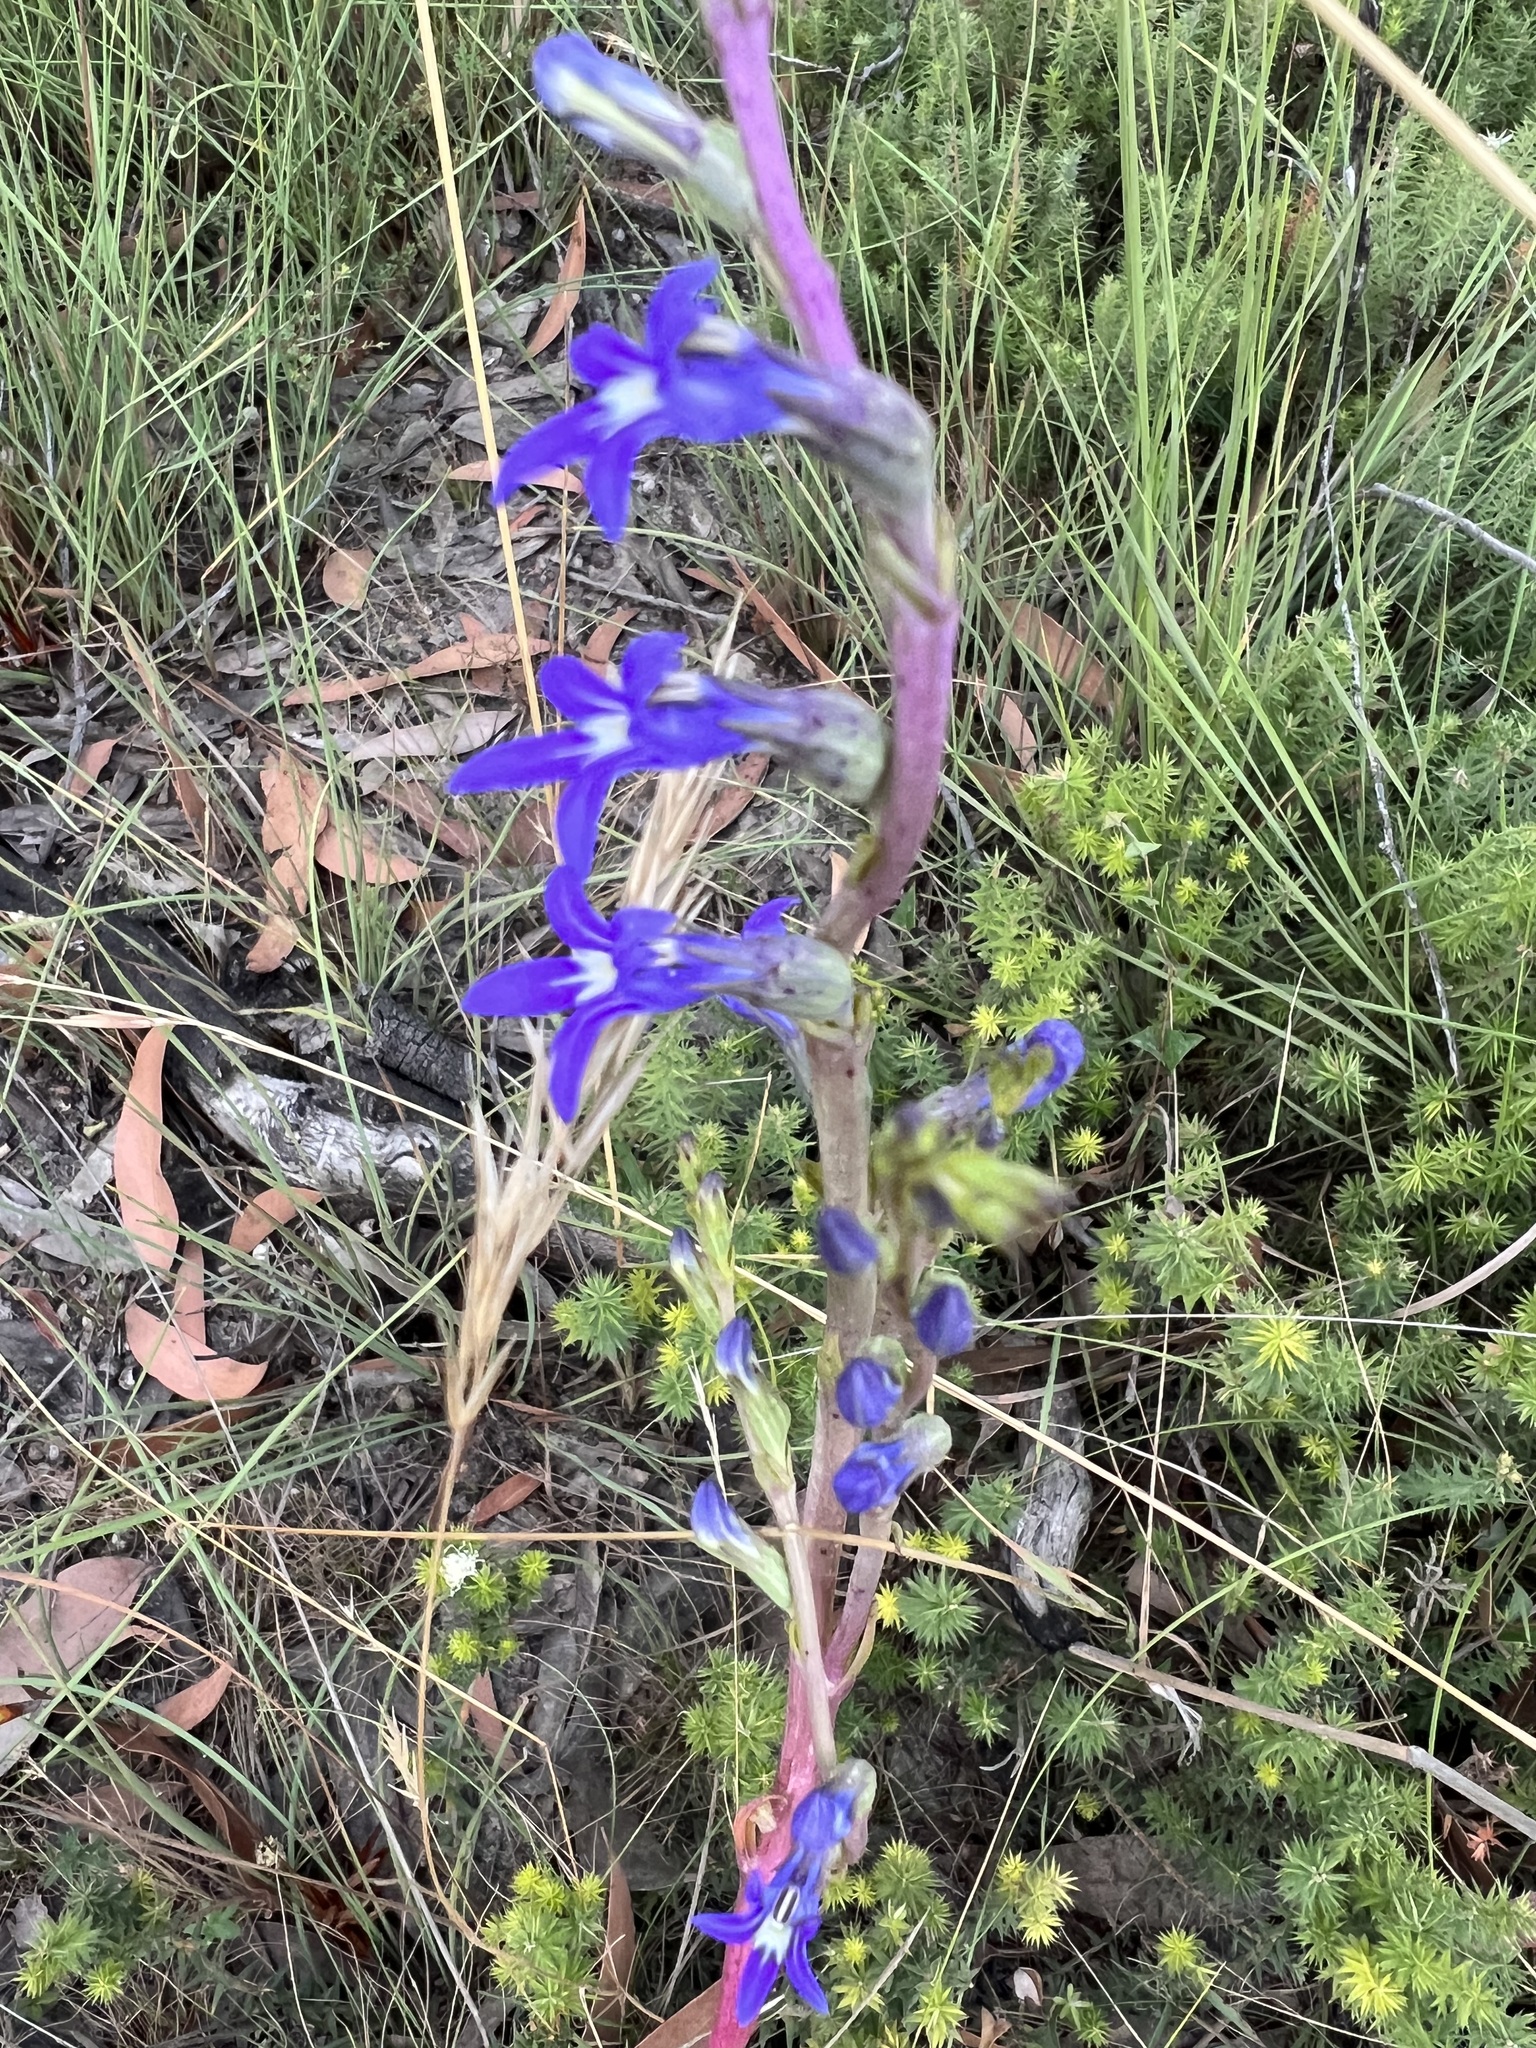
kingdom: Plantae
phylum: Tracheophyta
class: Magnoliopsida
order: Asterales
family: Campanulaceae
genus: Lobelia
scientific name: Lobelia gibbosa
